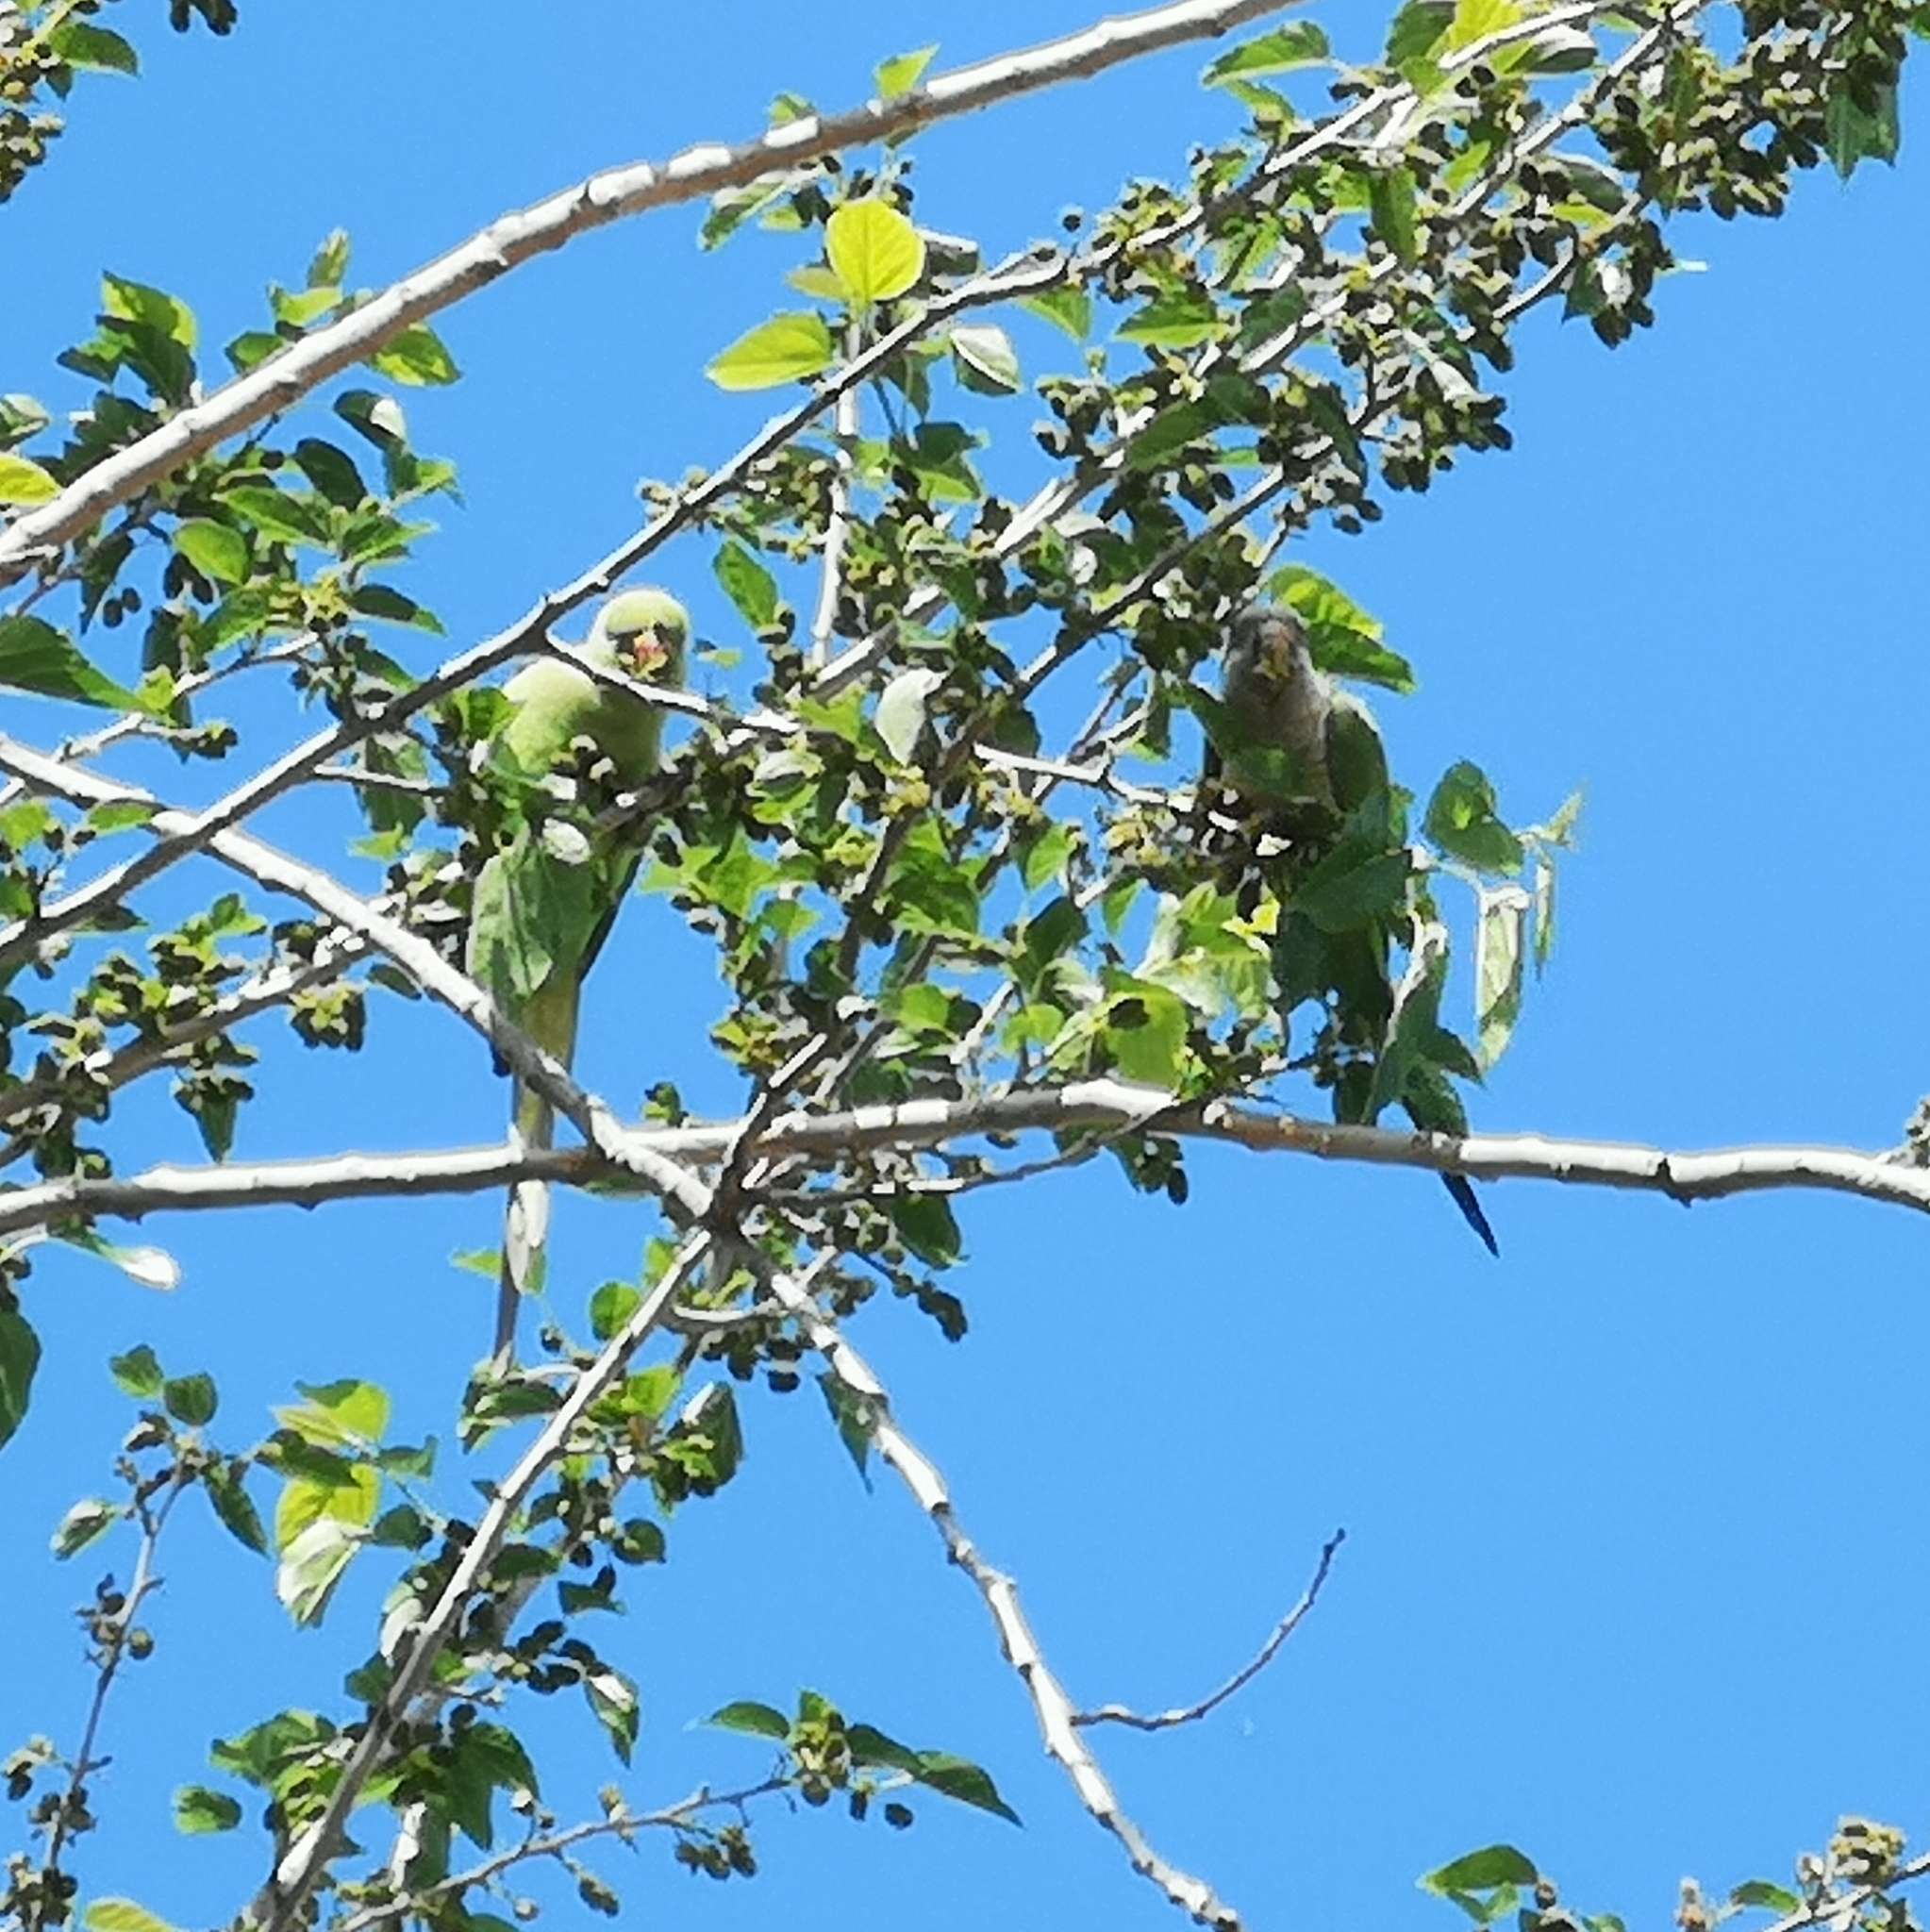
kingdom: Animalia
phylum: Chordata
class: Aves
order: Psittaciformes
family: Psittacidae
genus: Psittacula
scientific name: Psittacula krameri
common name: Rose-ringed parakeet
